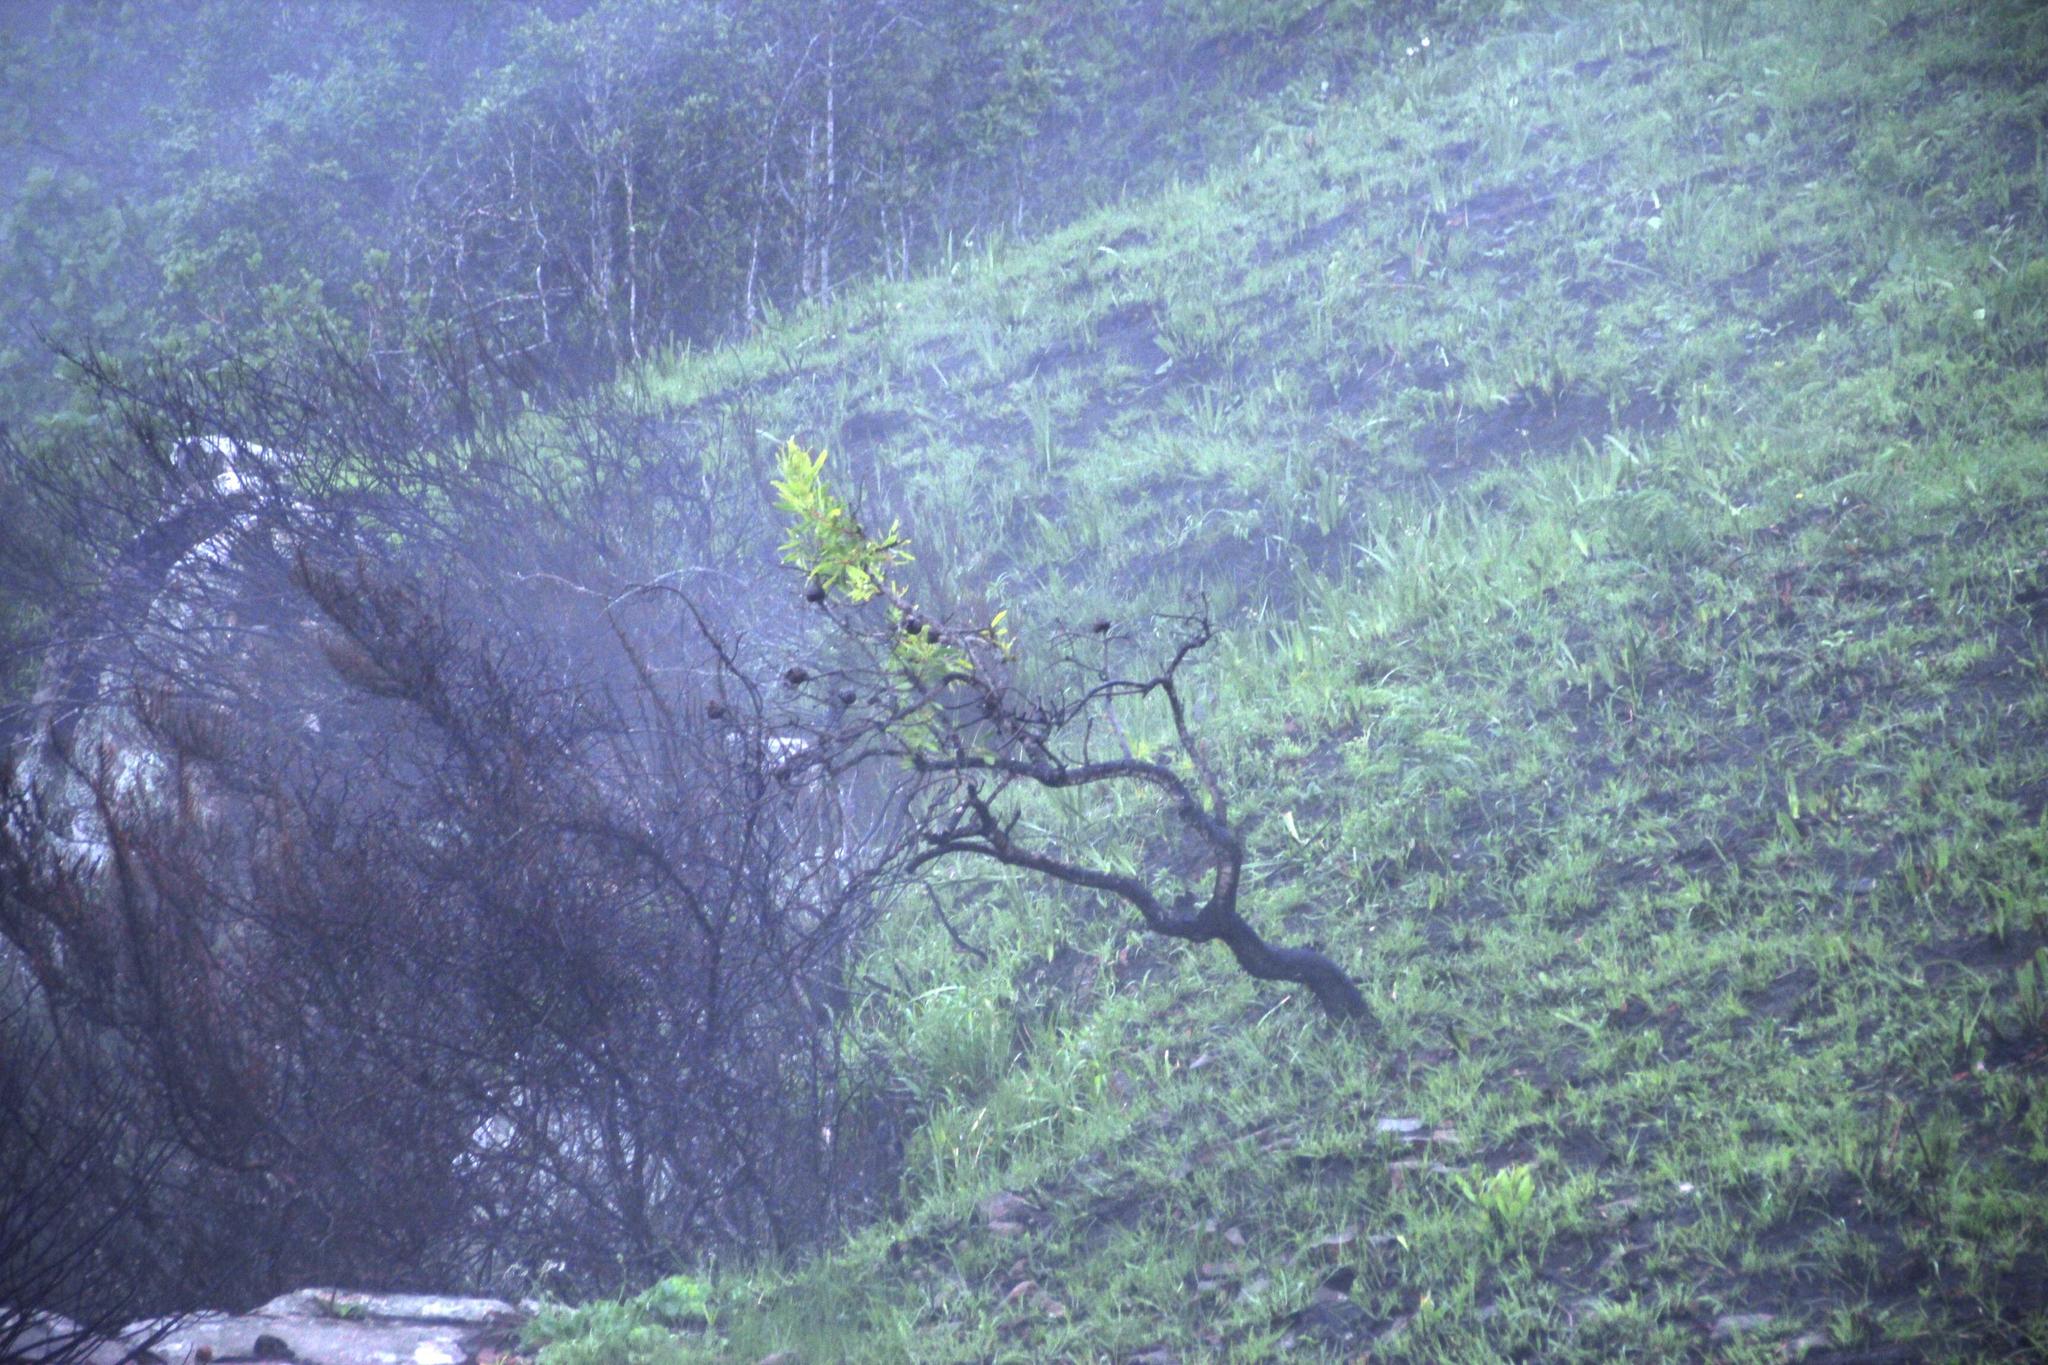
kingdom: Plantae
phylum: Tracheophyta
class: Magnoliopsida
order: Proteales
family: Proteaceae
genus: Protea
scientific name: Protea caffra
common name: Common sugarbush
